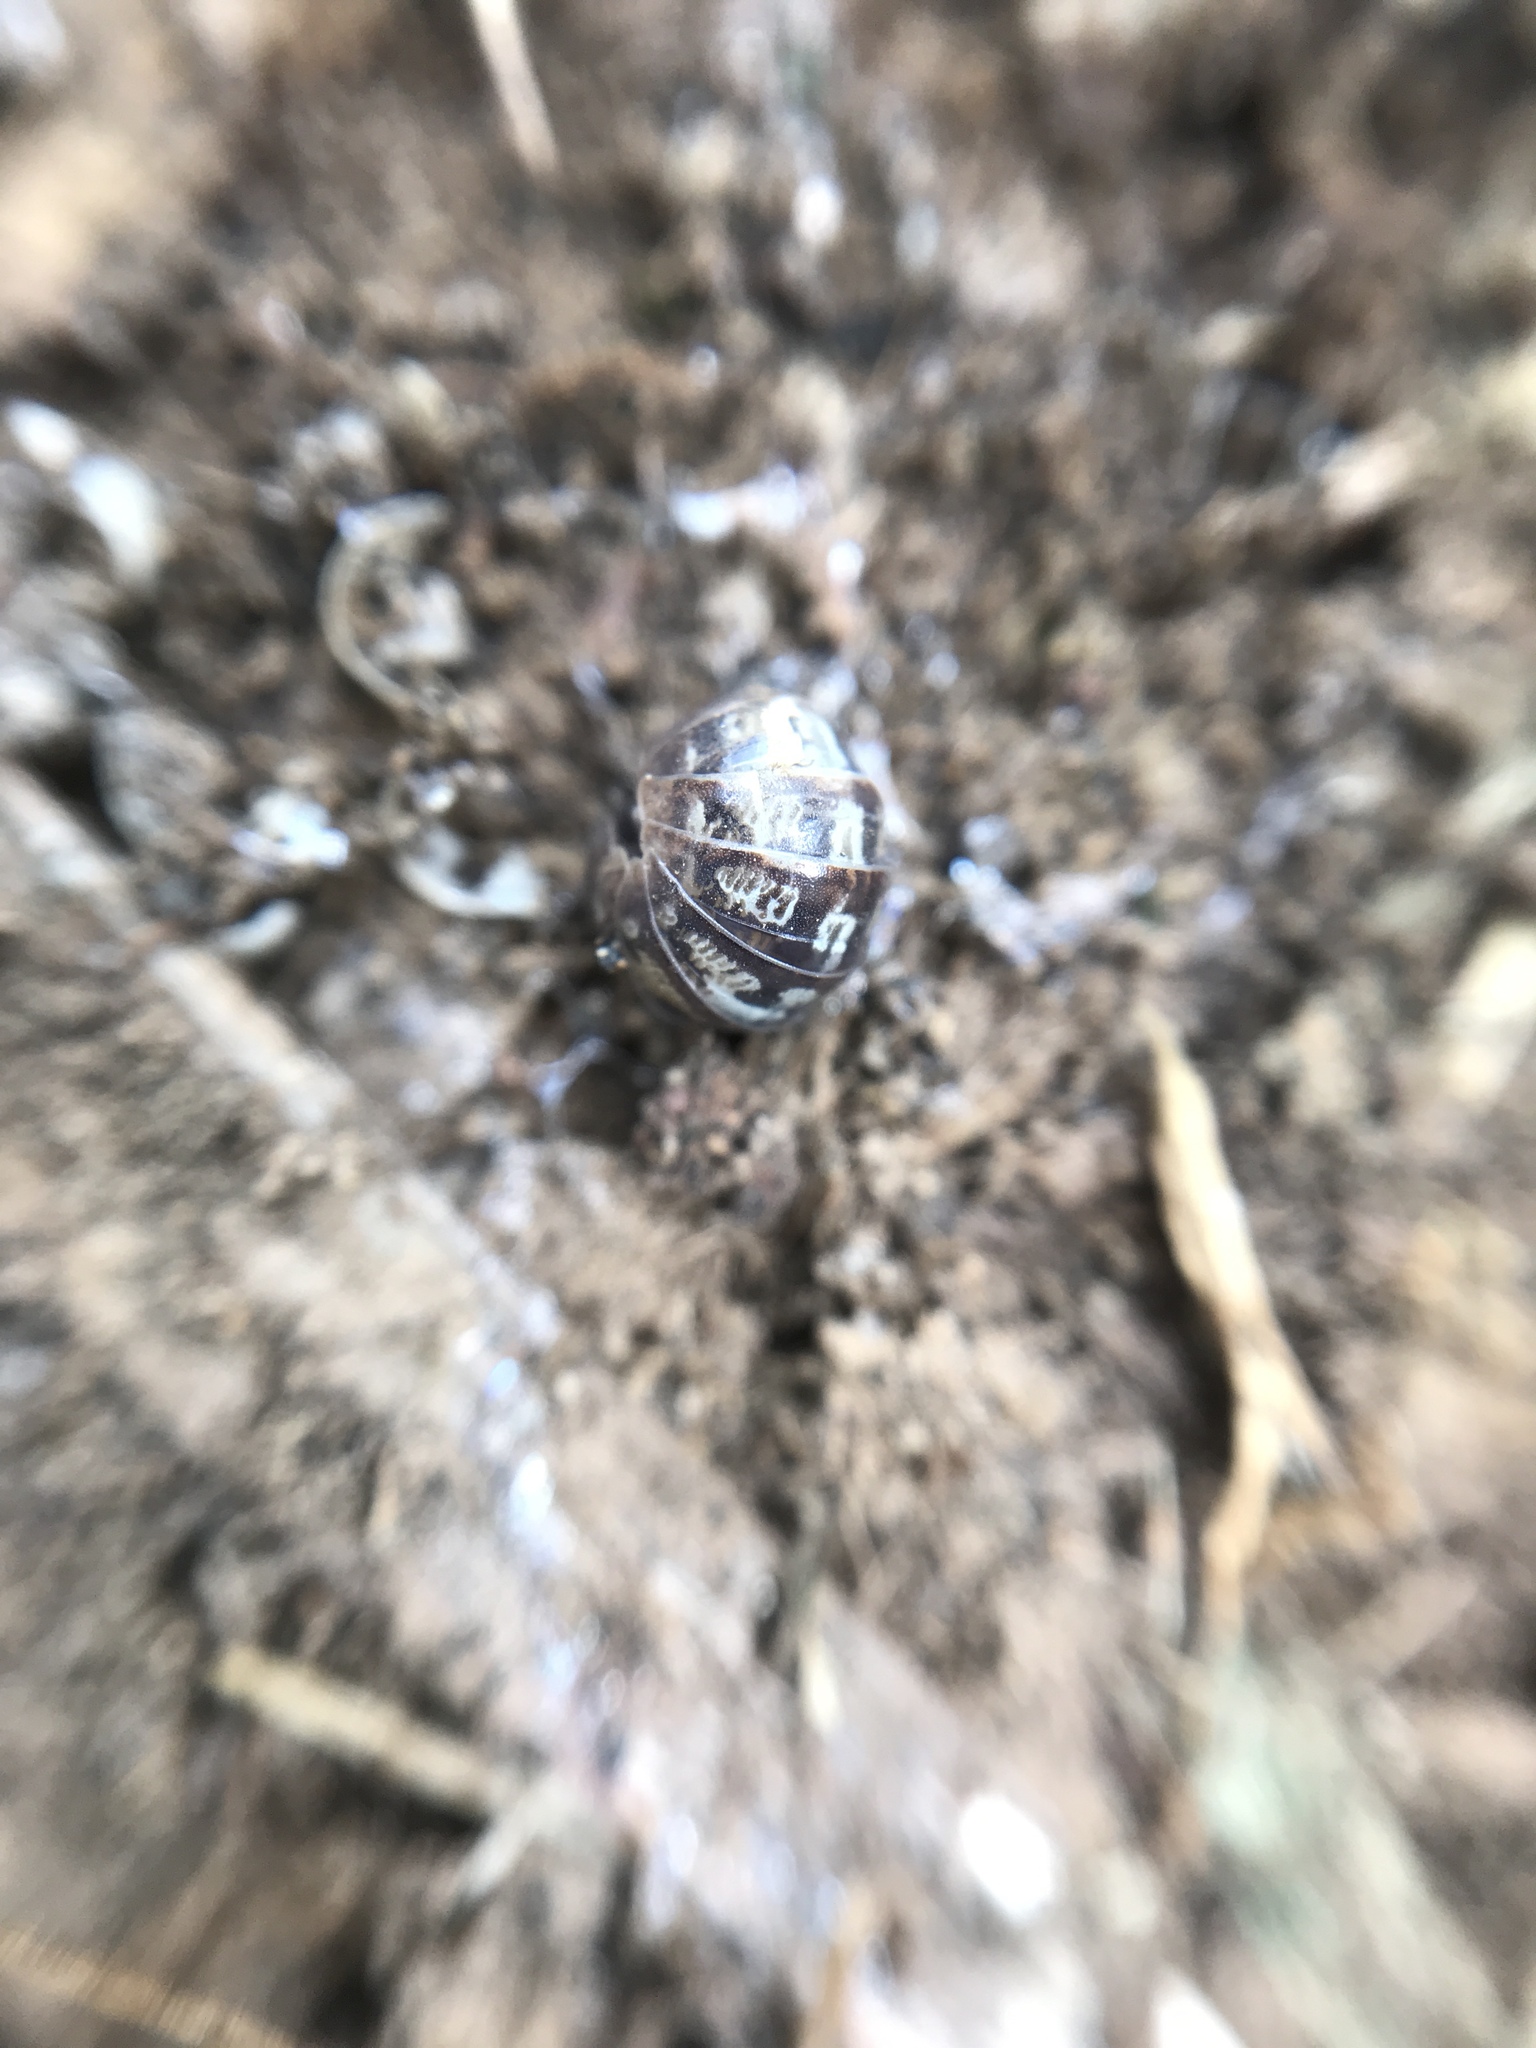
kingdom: Animalia
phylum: Arthropoda
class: Malacostraca
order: Isopoda
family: Armadillidiidae
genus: Armadillidium
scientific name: Armadillidium vulgare
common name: Common pill woodlouse
